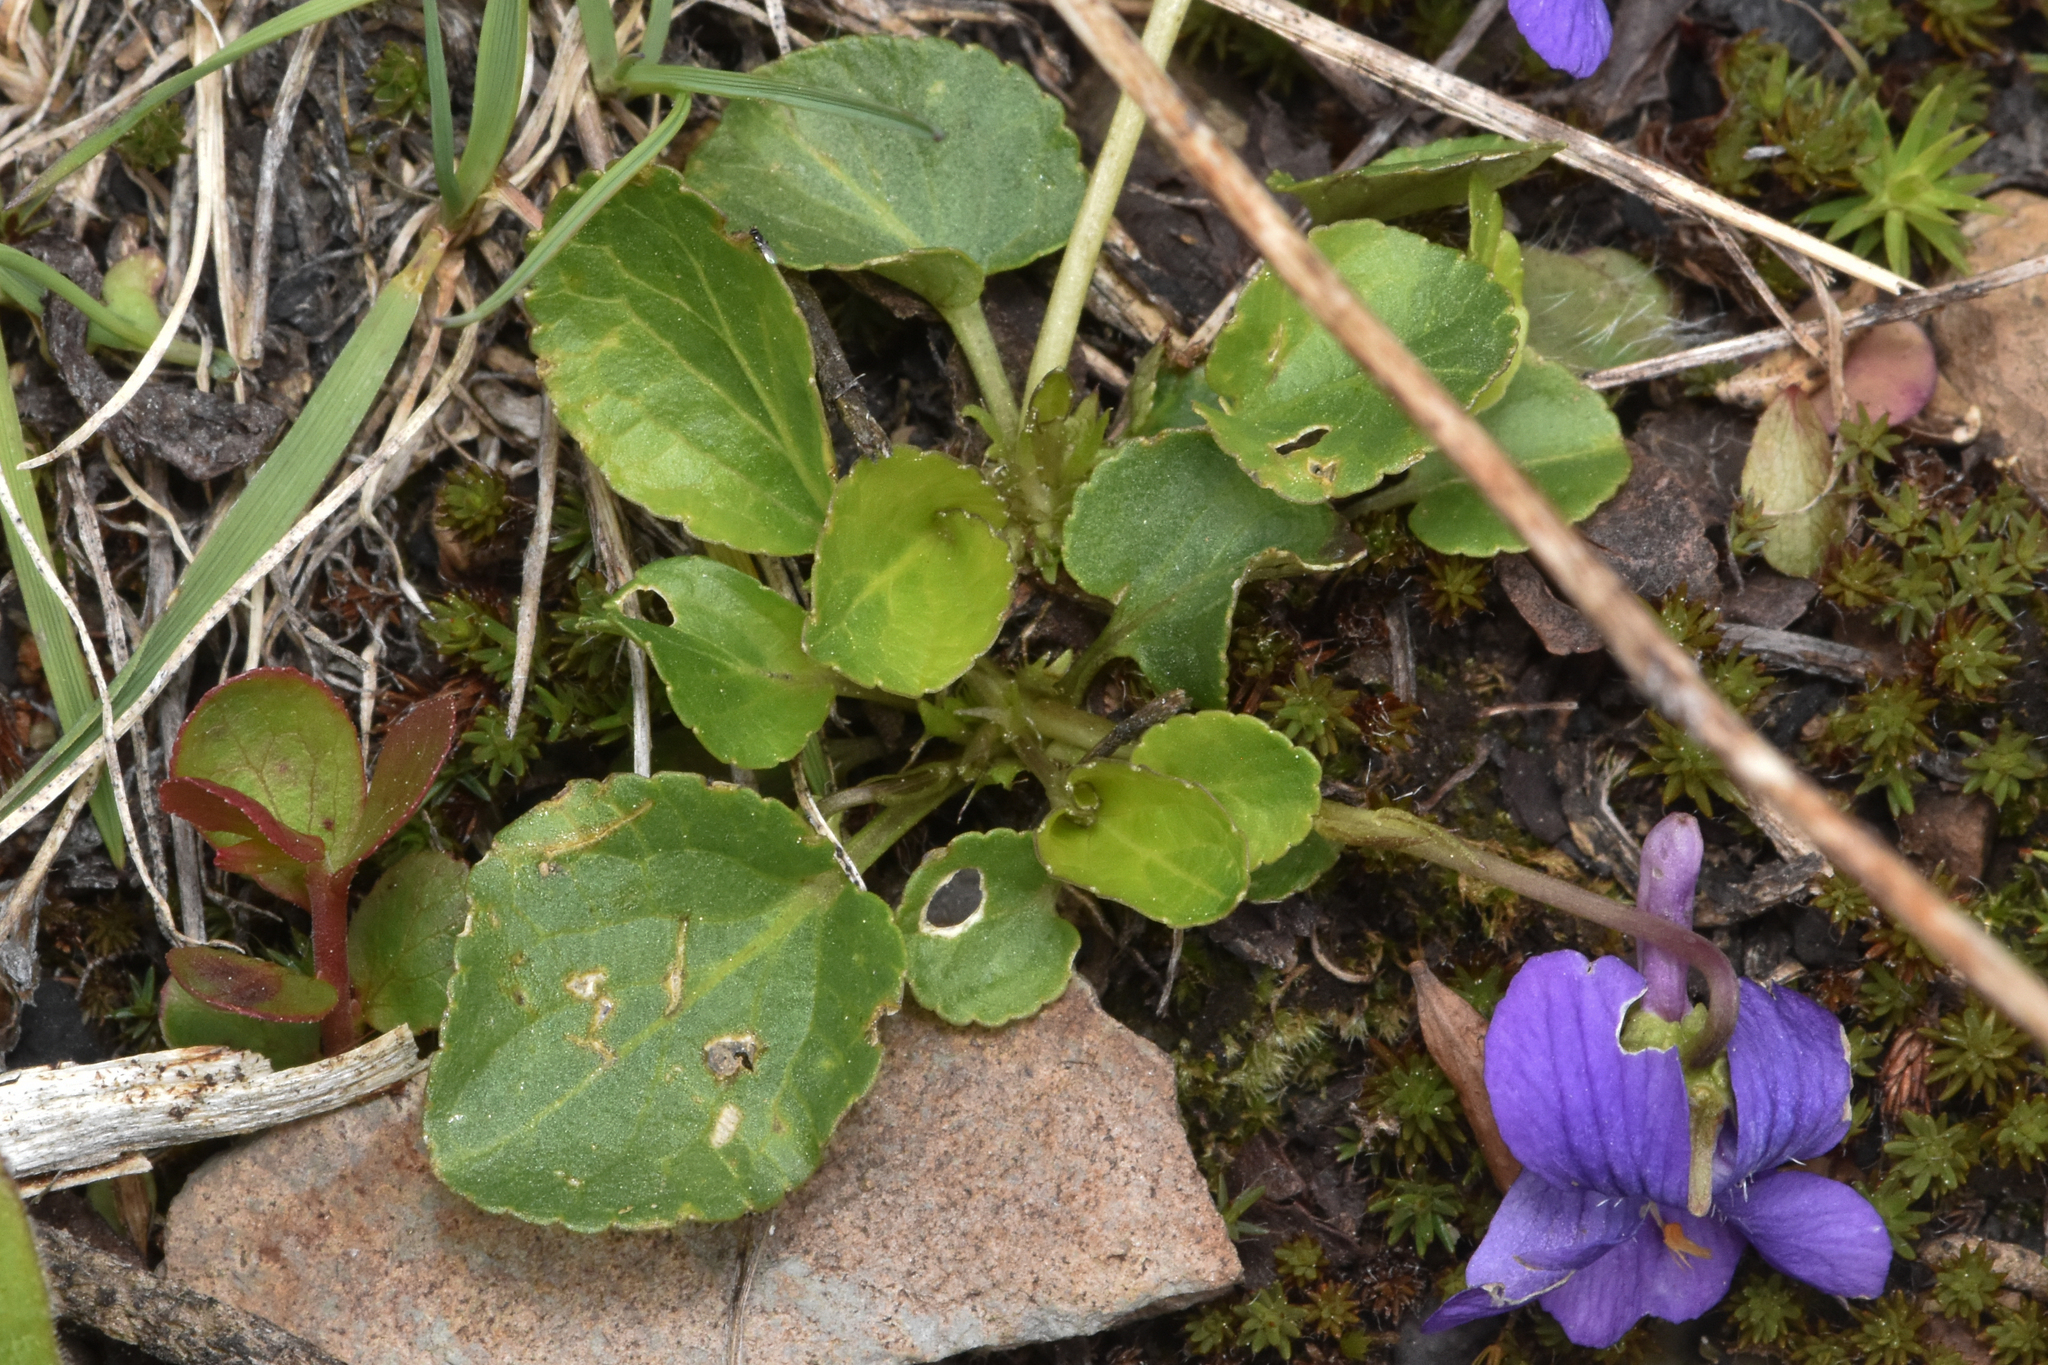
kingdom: Plantae
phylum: Tracheophyta
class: Magnoliopsida
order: Malpighiales
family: Violaceae
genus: Viola
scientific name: Viola adunca
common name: Sand violet
